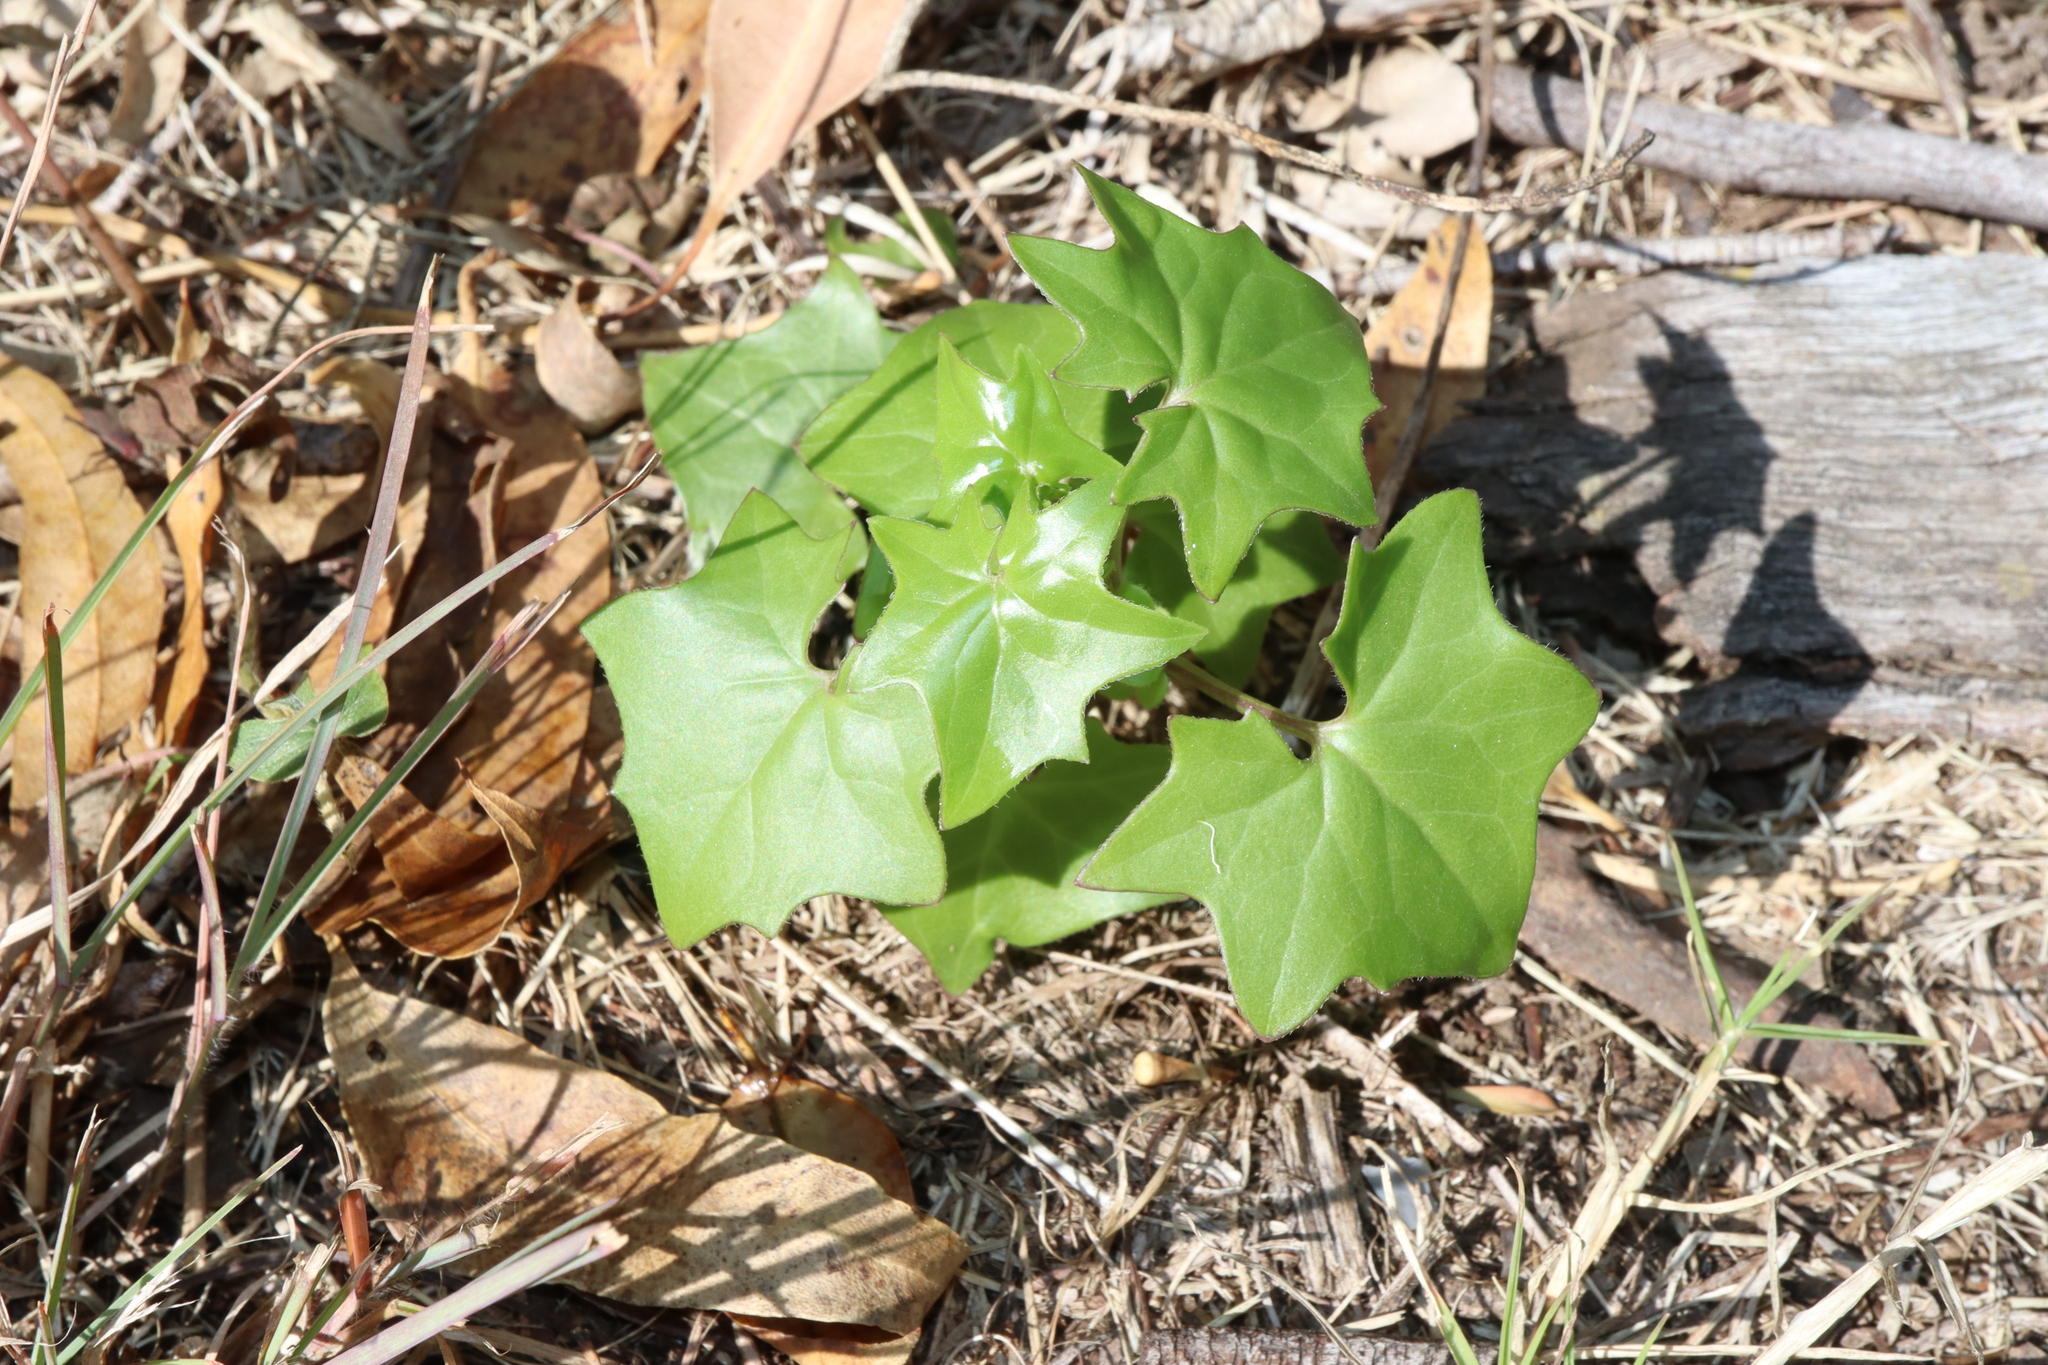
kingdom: Plantae
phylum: Tracheophyta
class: Magnoliopsida
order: Asterales
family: Asteraceae
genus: Delairea
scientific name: Delairea odorata
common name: Cape-ivy
